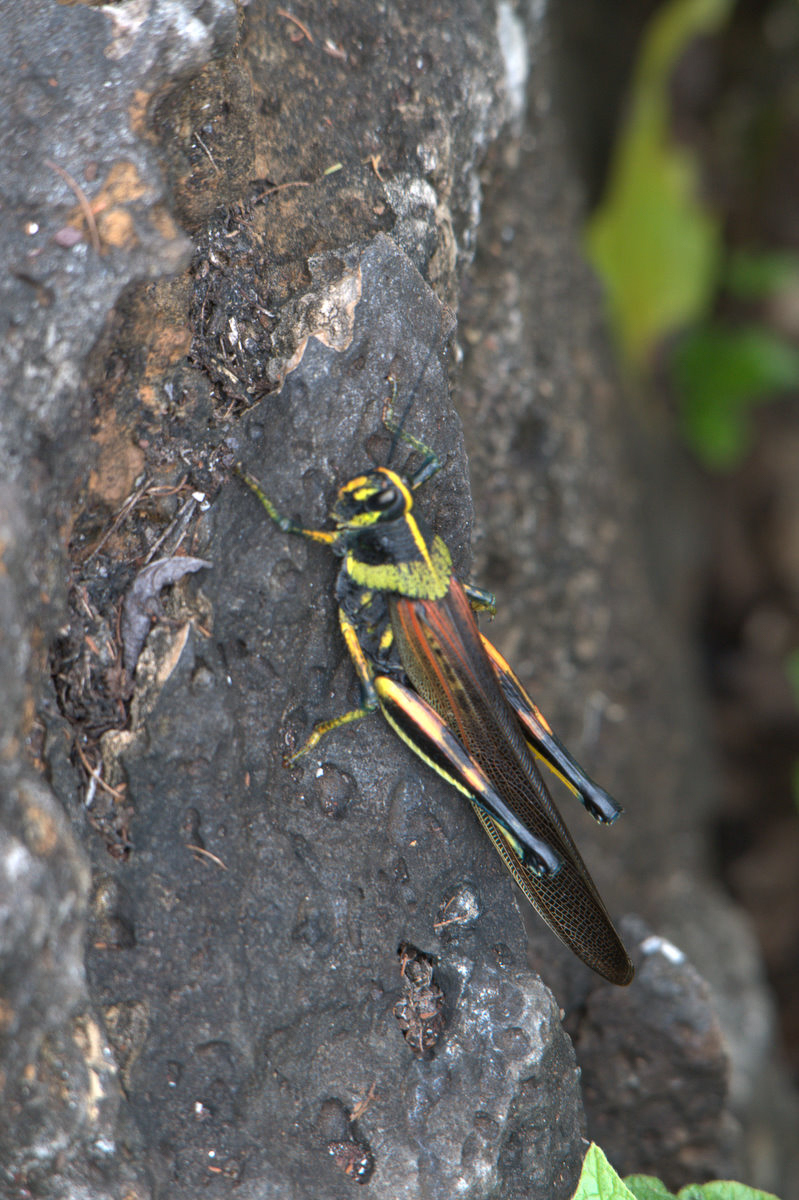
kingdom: Animalia
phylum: Arthropoda
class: Insecta
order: Orthoptera
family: Acrididae
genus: Schistocerca
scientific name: Schistocerca melanocera
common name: Large painted locust
